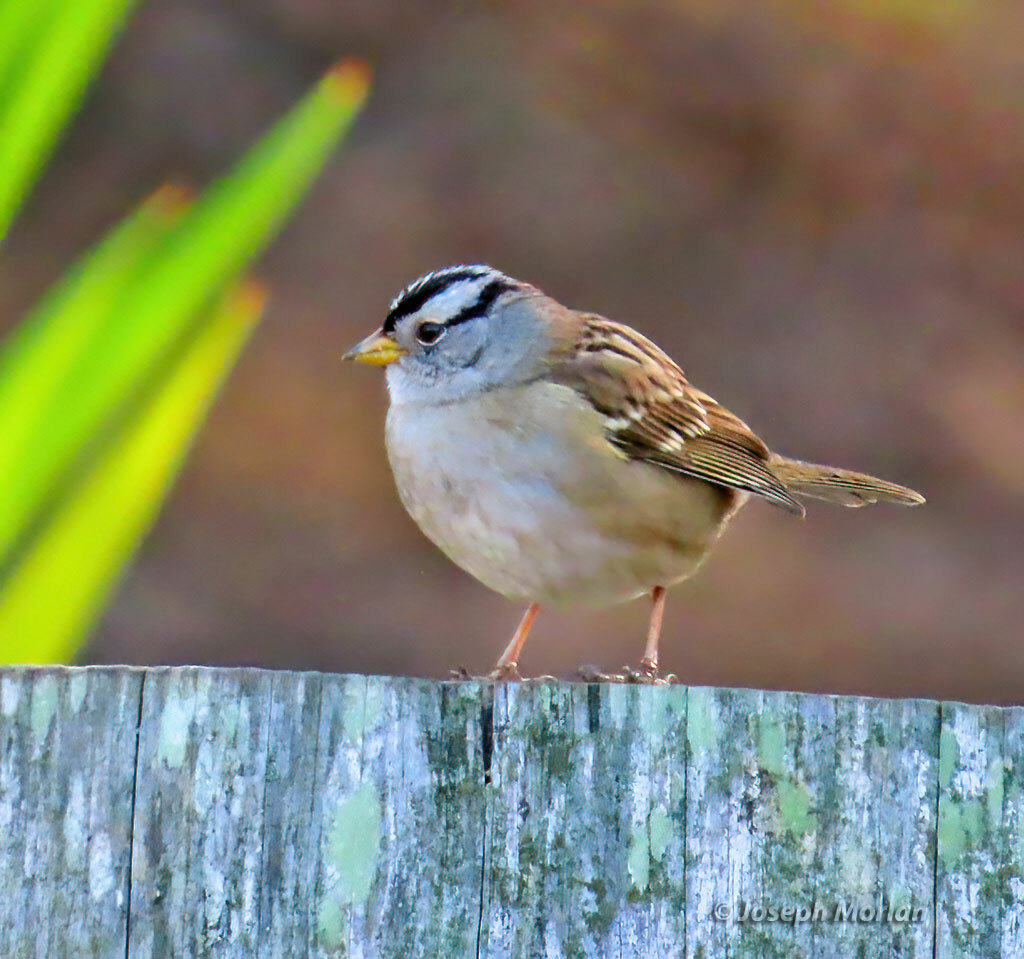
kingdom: Animalia
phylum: Chordata
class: Aves
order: Passeriformes
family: Passerellidae
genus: Zonotrichia
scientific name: Zonotrichia leucophrys
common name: White-crowned sparrow
